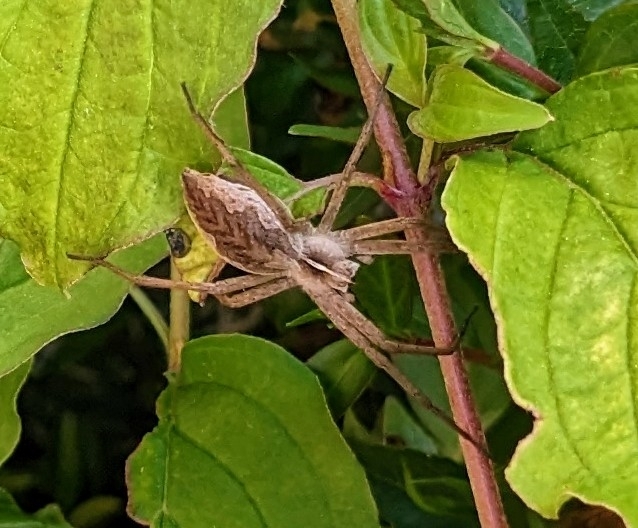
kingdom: Animalia
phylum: Arthropoda
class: Arachnida
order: Araneae
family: Pisauridae
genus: Pisaura
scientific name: Pisaura mirabilis
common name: Tent spider
